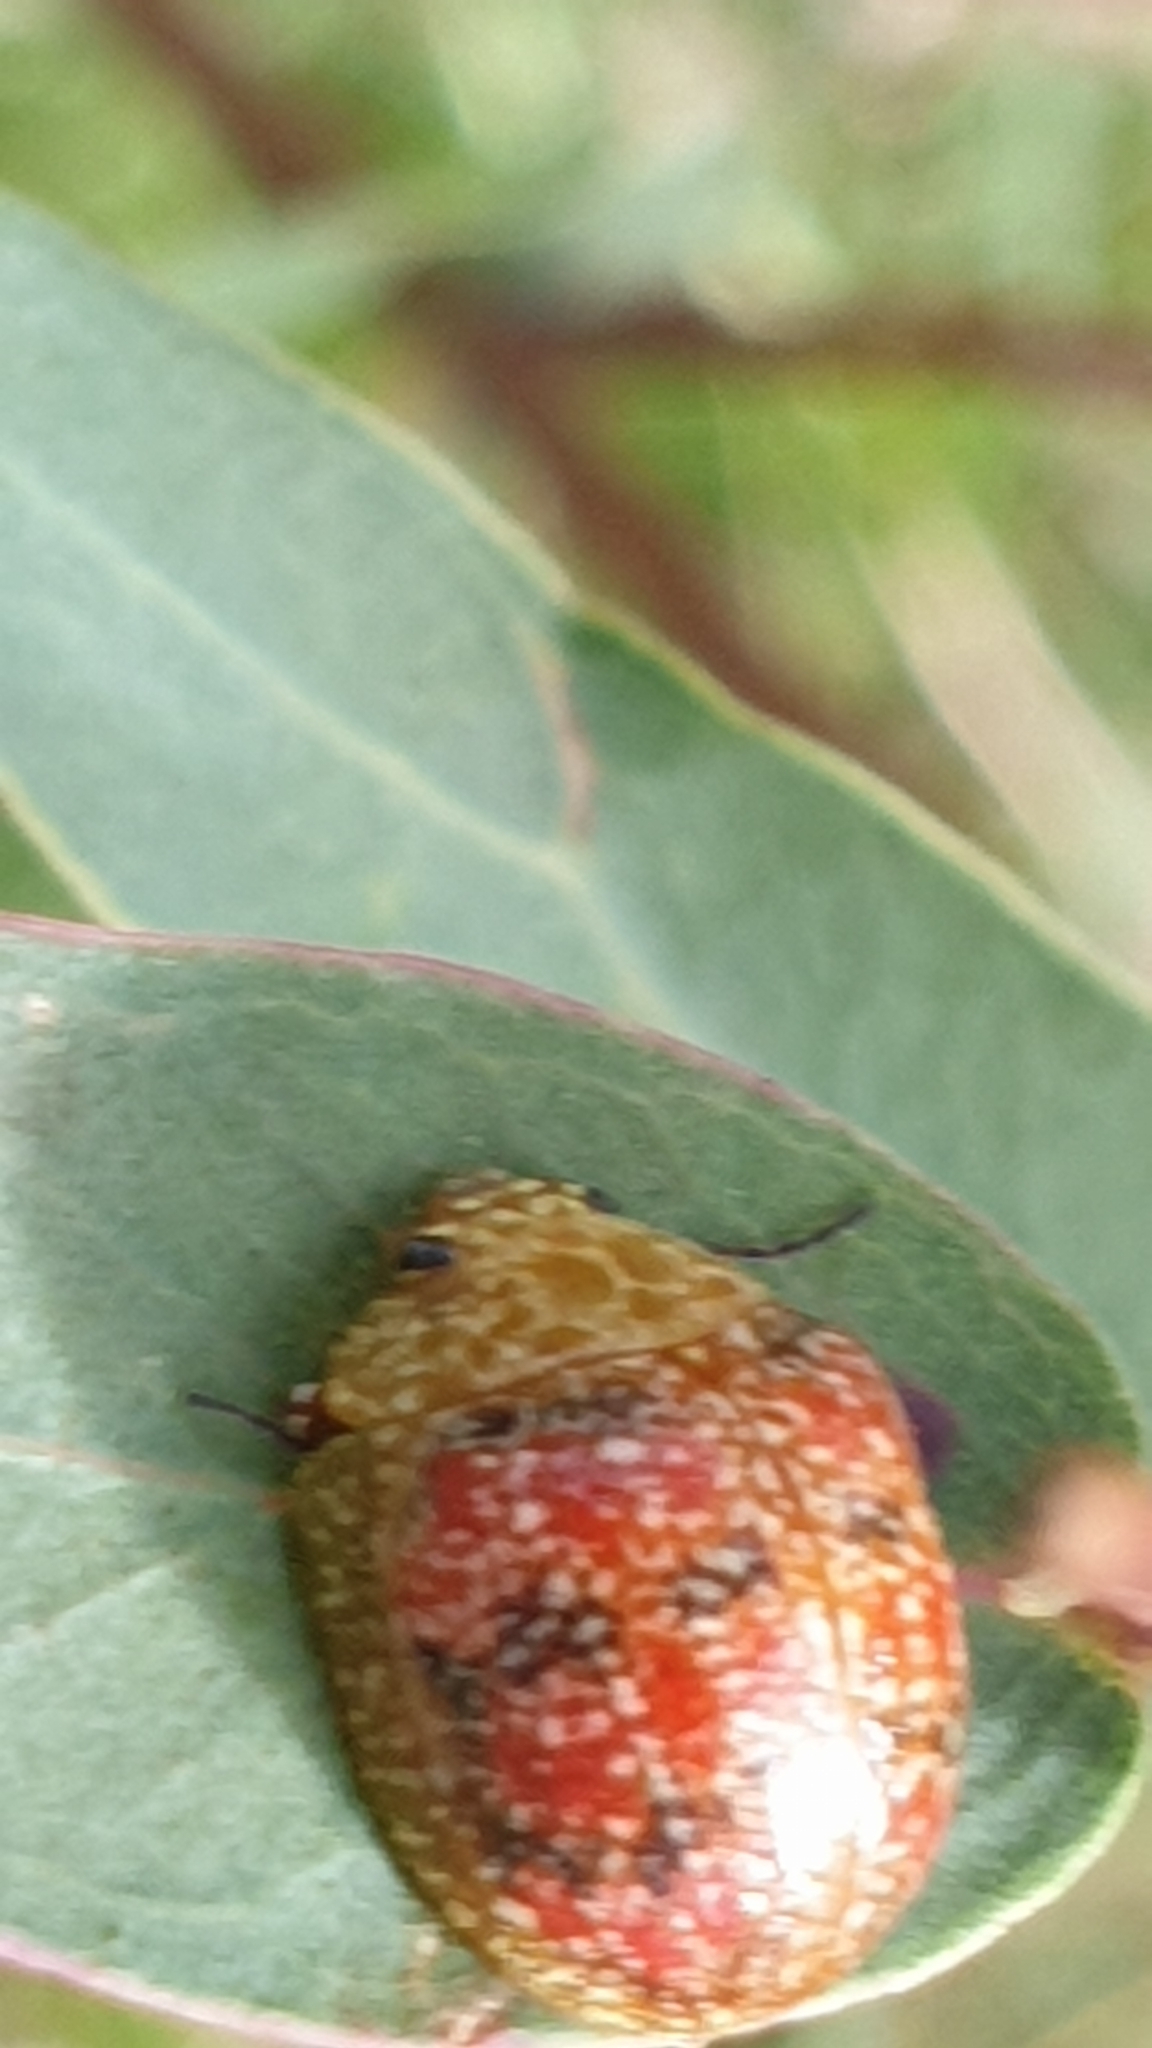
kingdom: Animalia
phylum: Arthropoda
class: Insecta
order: Coleoptera
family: Chrysomelidae
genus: Paropsis
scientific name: Paropsis obsoleta
